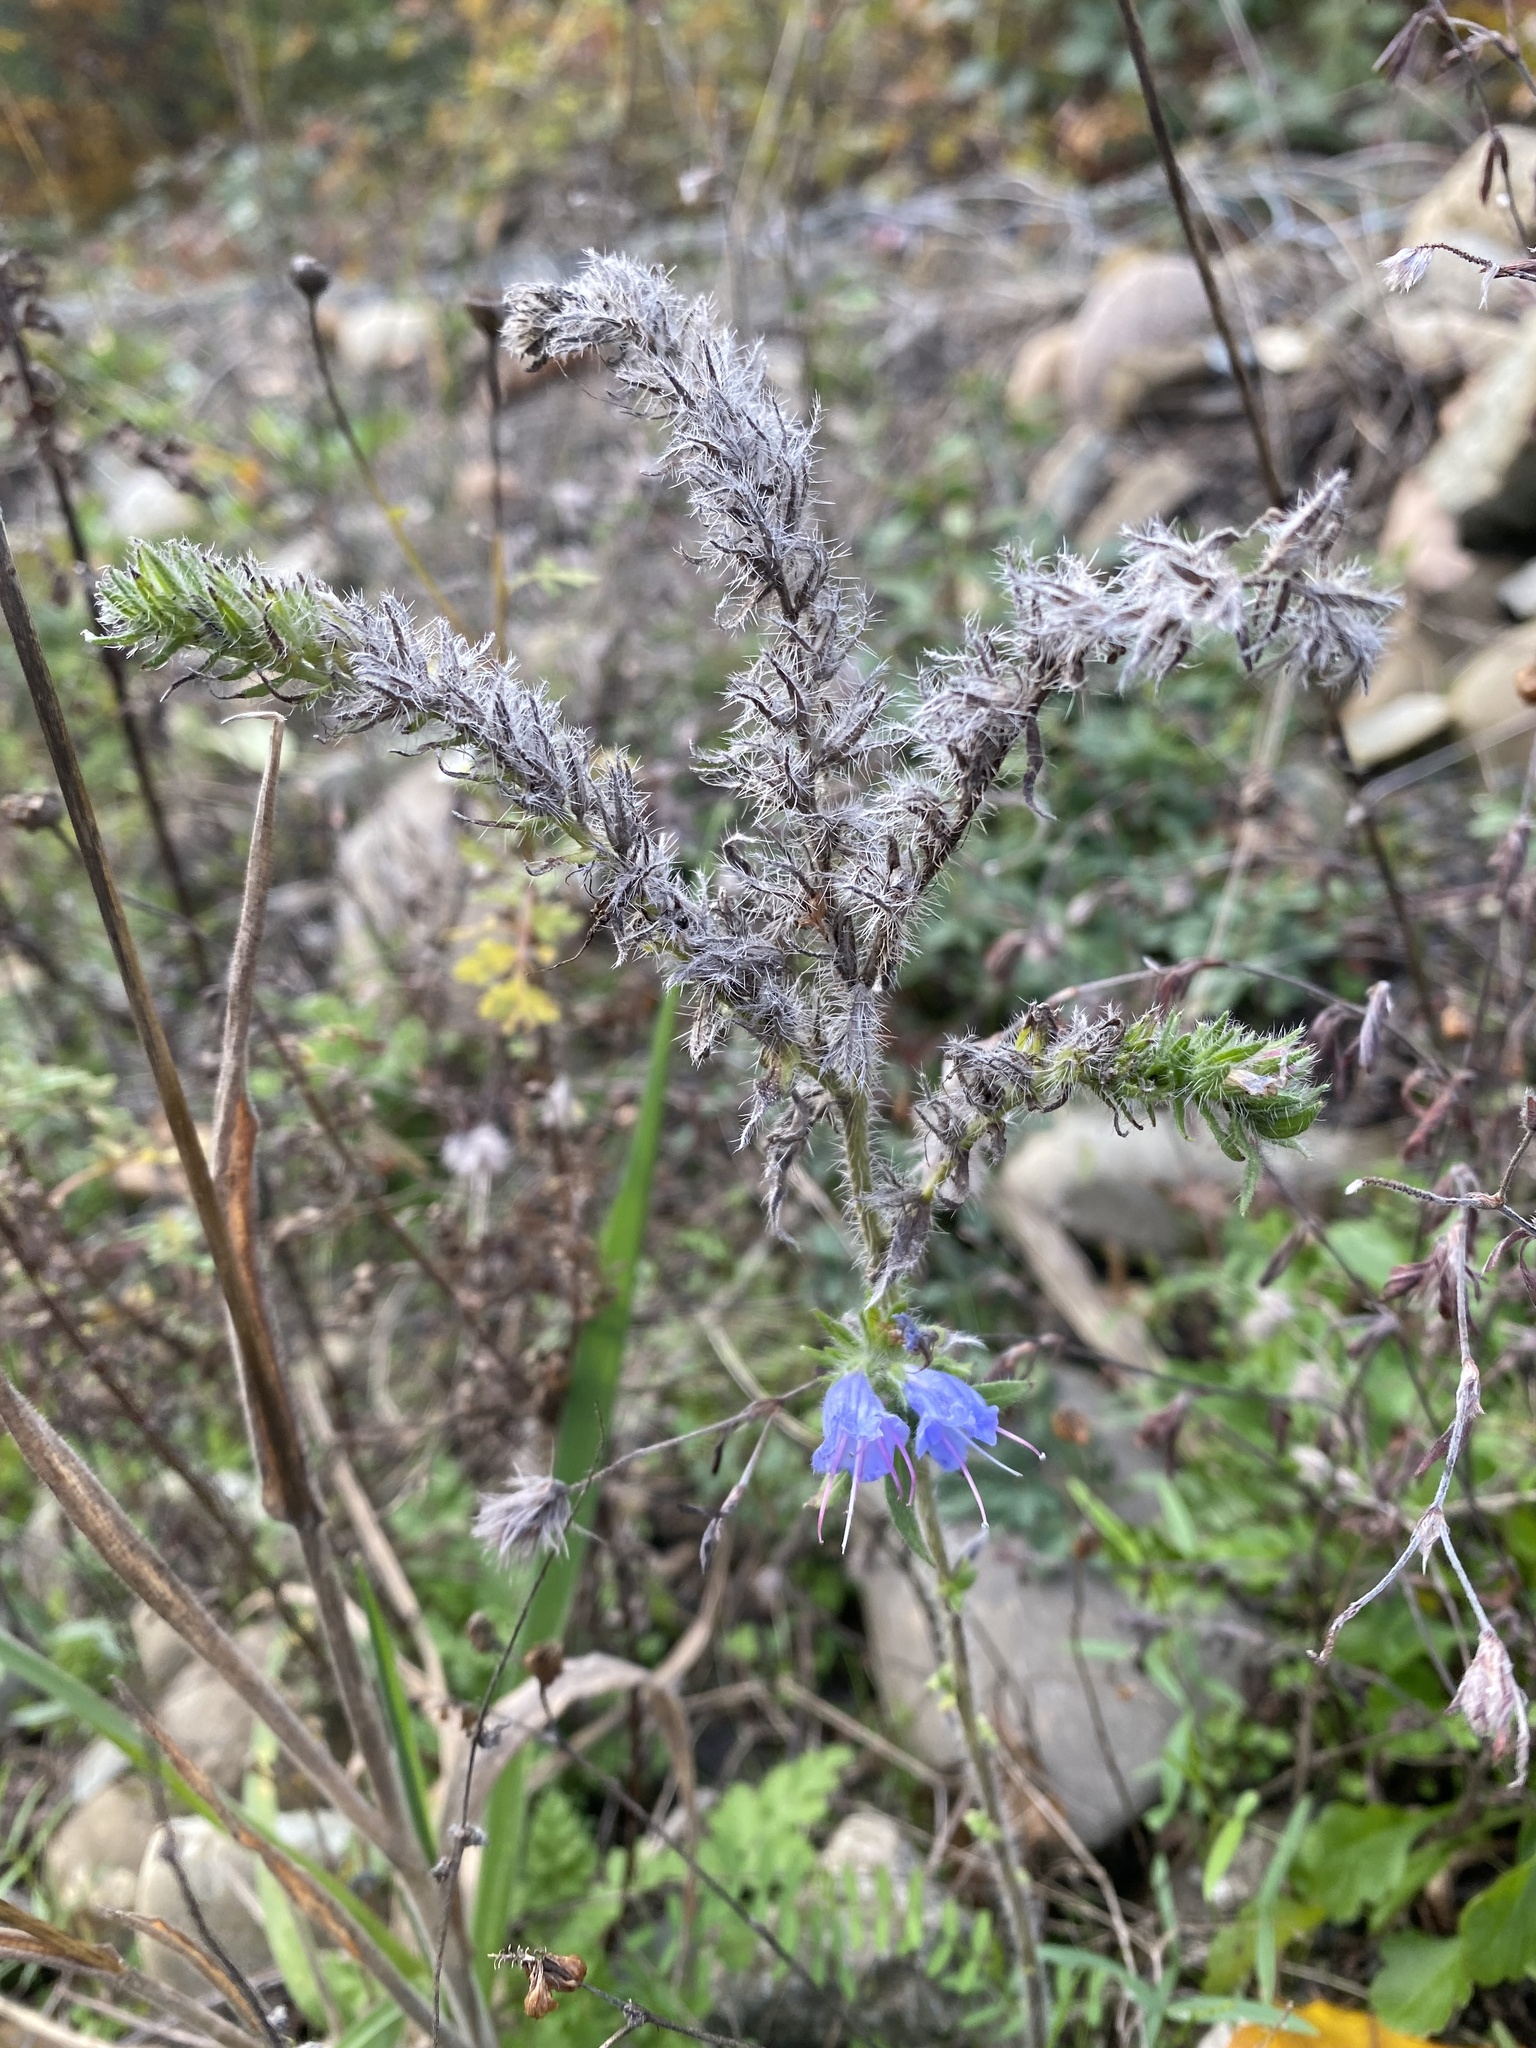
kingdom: Plantae
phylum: Tracheophyta
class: Magnoliopsida
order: Boraginales
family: Boraginaceae
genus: Echium
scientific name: Echium vulgare
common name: Common viper's bugloss
